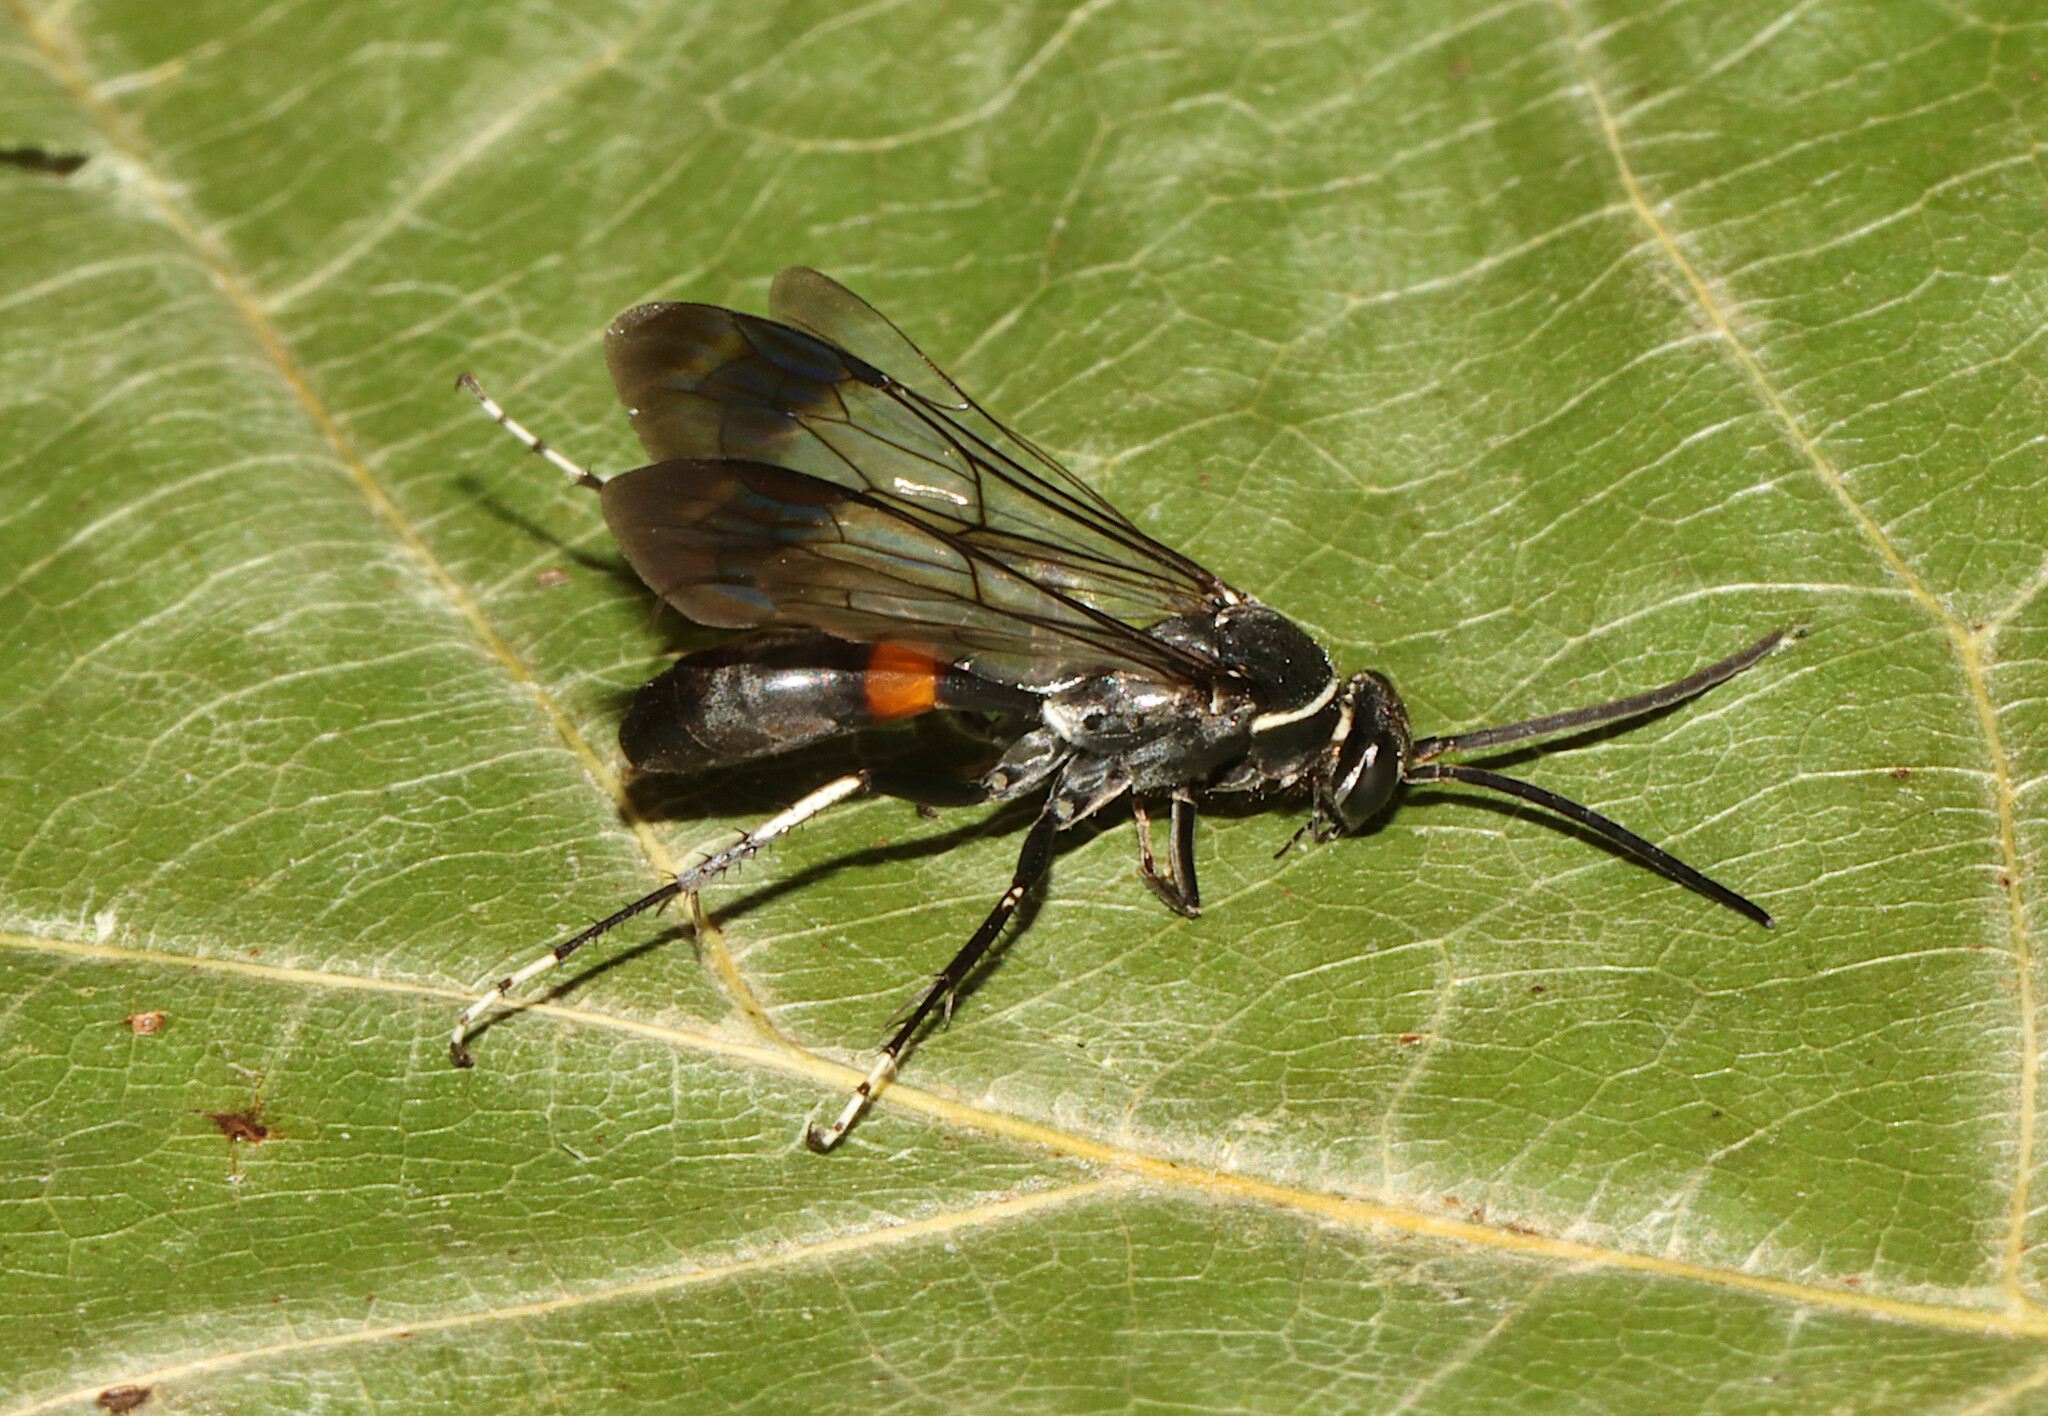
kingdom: Animalia
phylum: Arthropoda
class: Insecta
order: Hymenoptera
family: Pompilidae
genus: Sericopompilus
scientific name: Sericopompilus apicalis
